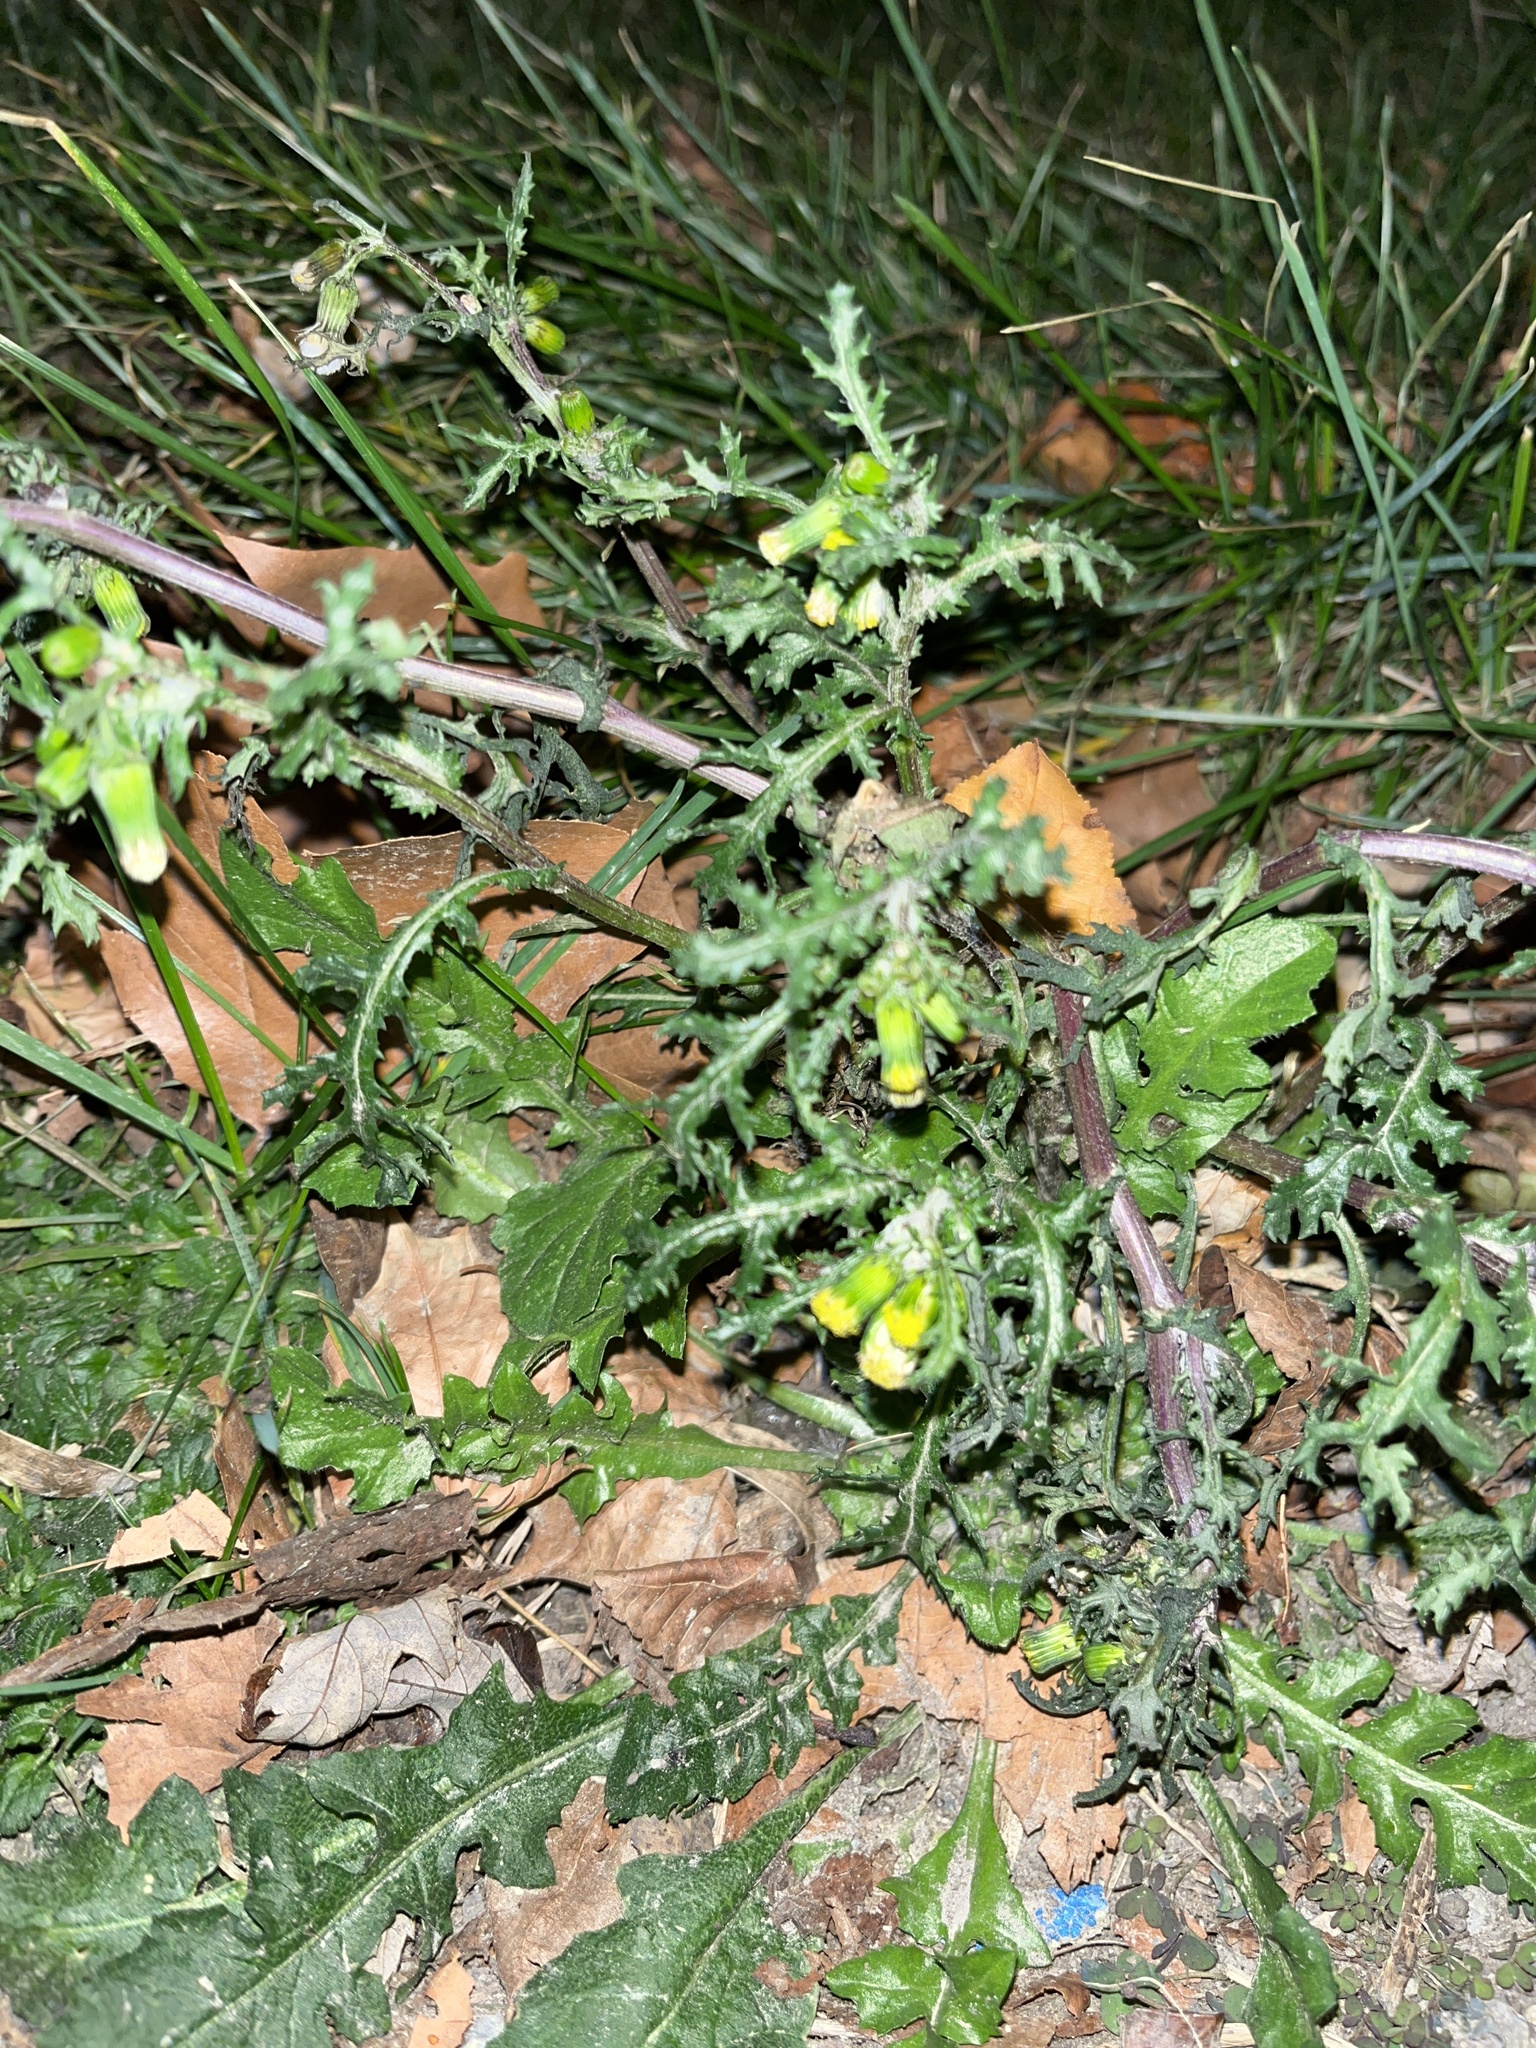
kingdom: Plantae
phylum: Tracheophyta
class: Magnoliopsida
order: Asterales
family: Asteraceae
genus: Senecio
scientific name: Senecio vulgaris
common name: Old-man-in-the-spring
